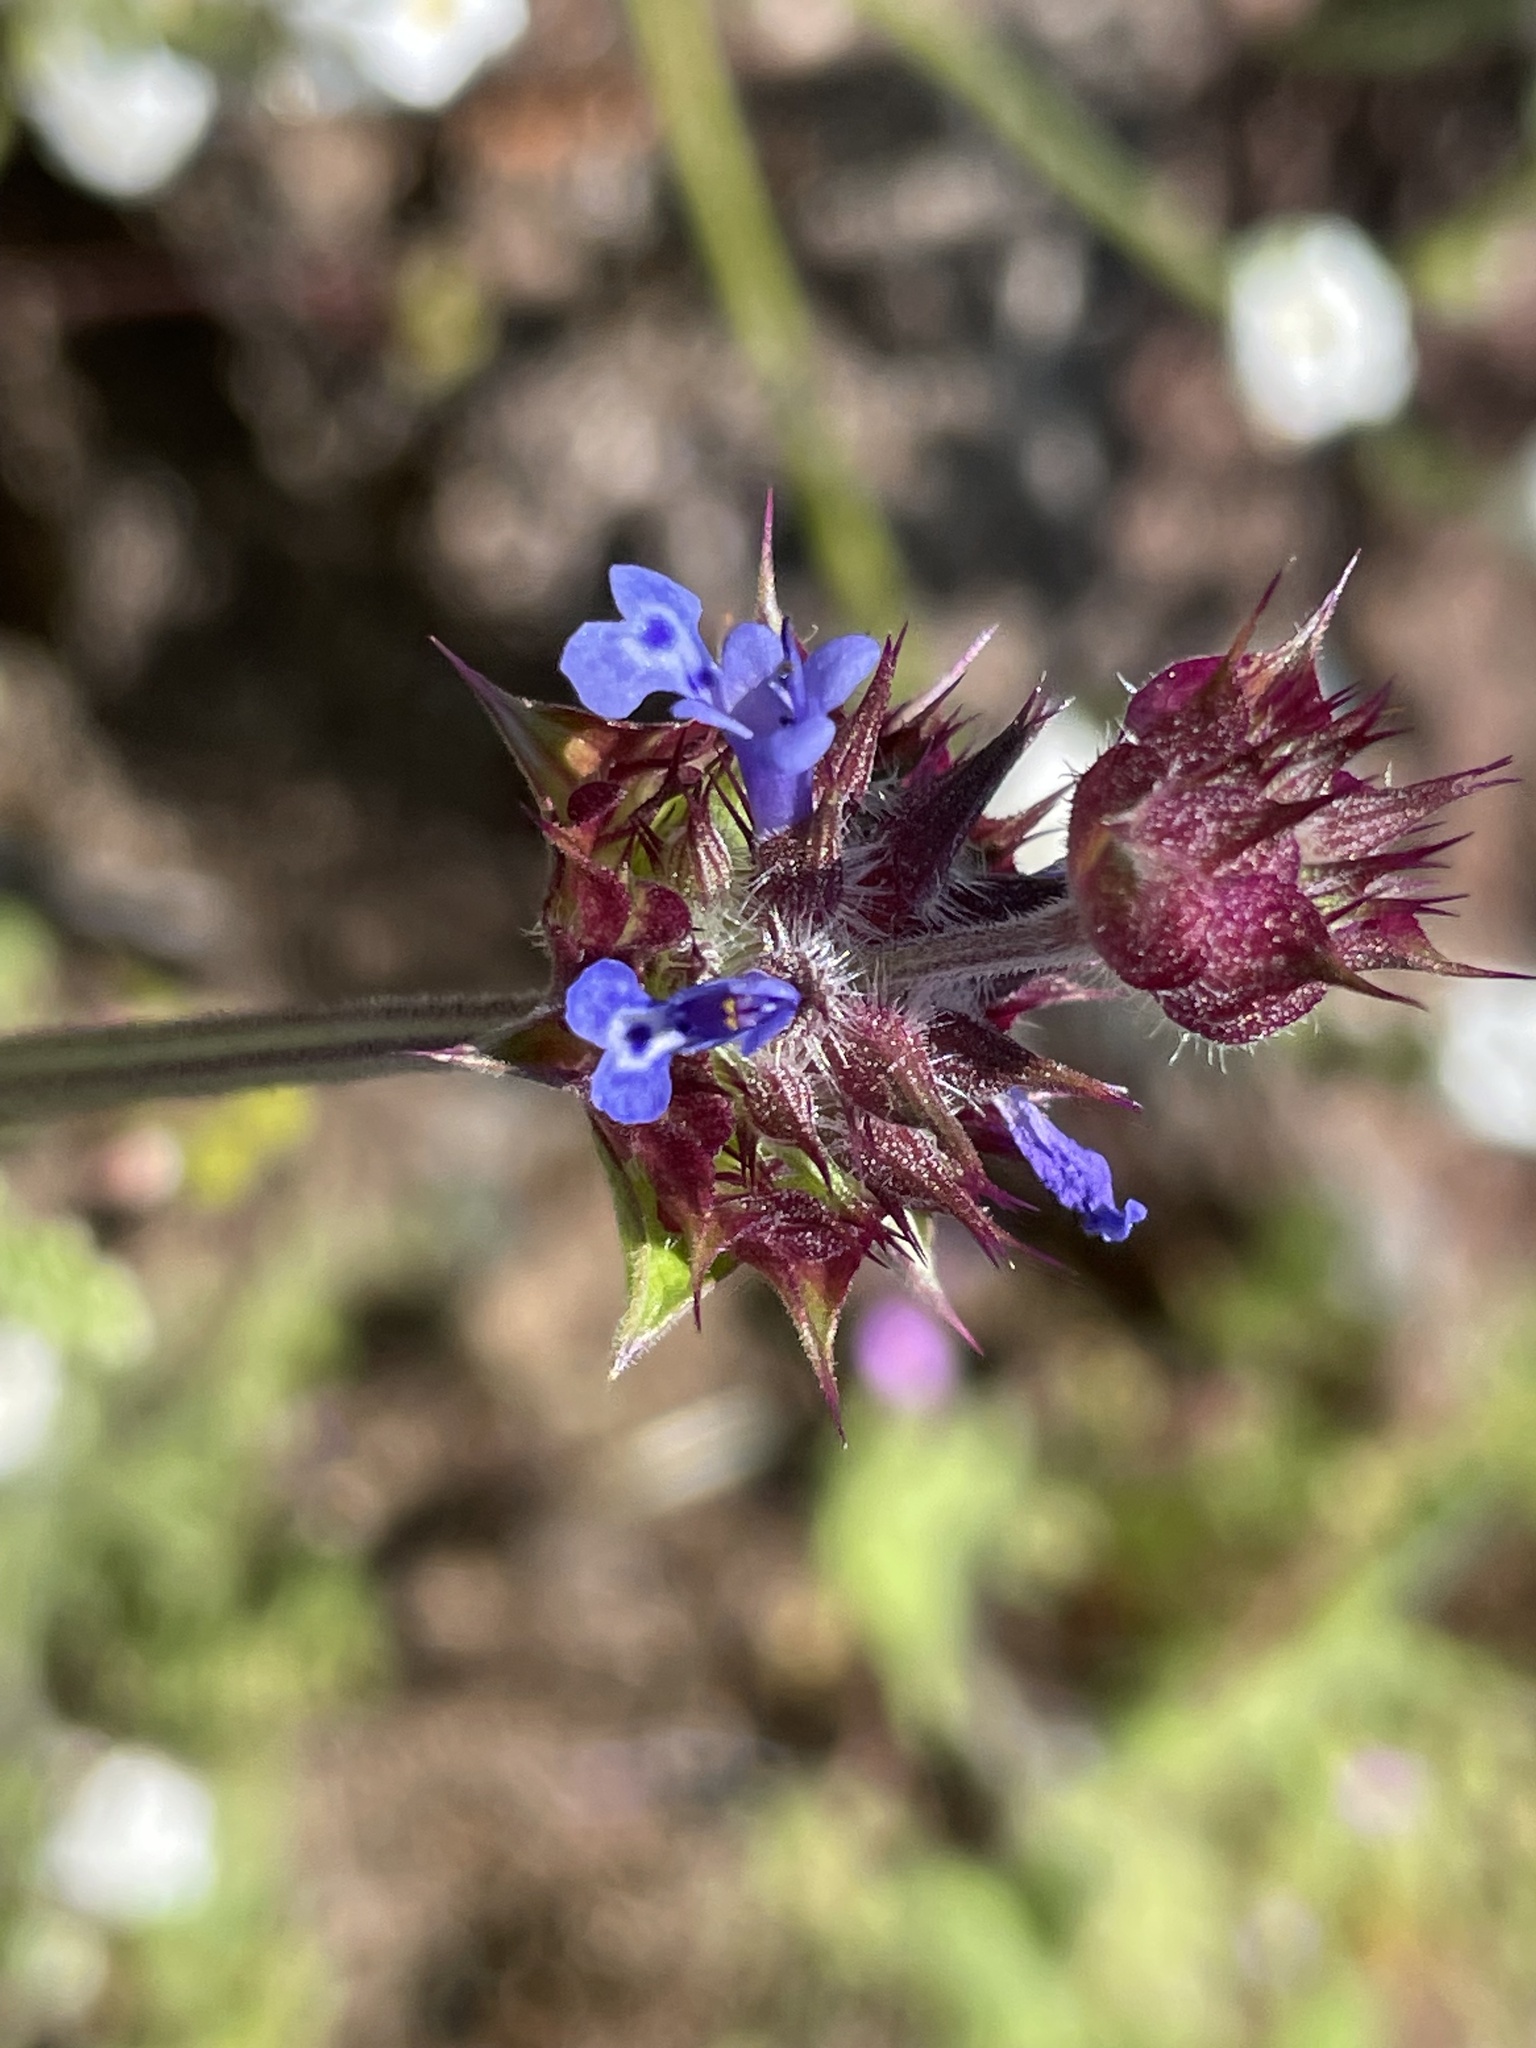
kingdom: Plantae
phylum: Tracheophyta
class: Magnoliopsida
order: Lamiales
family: Lamiaceae
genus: Salvia
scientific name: Salvia columbariae
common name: Chia
